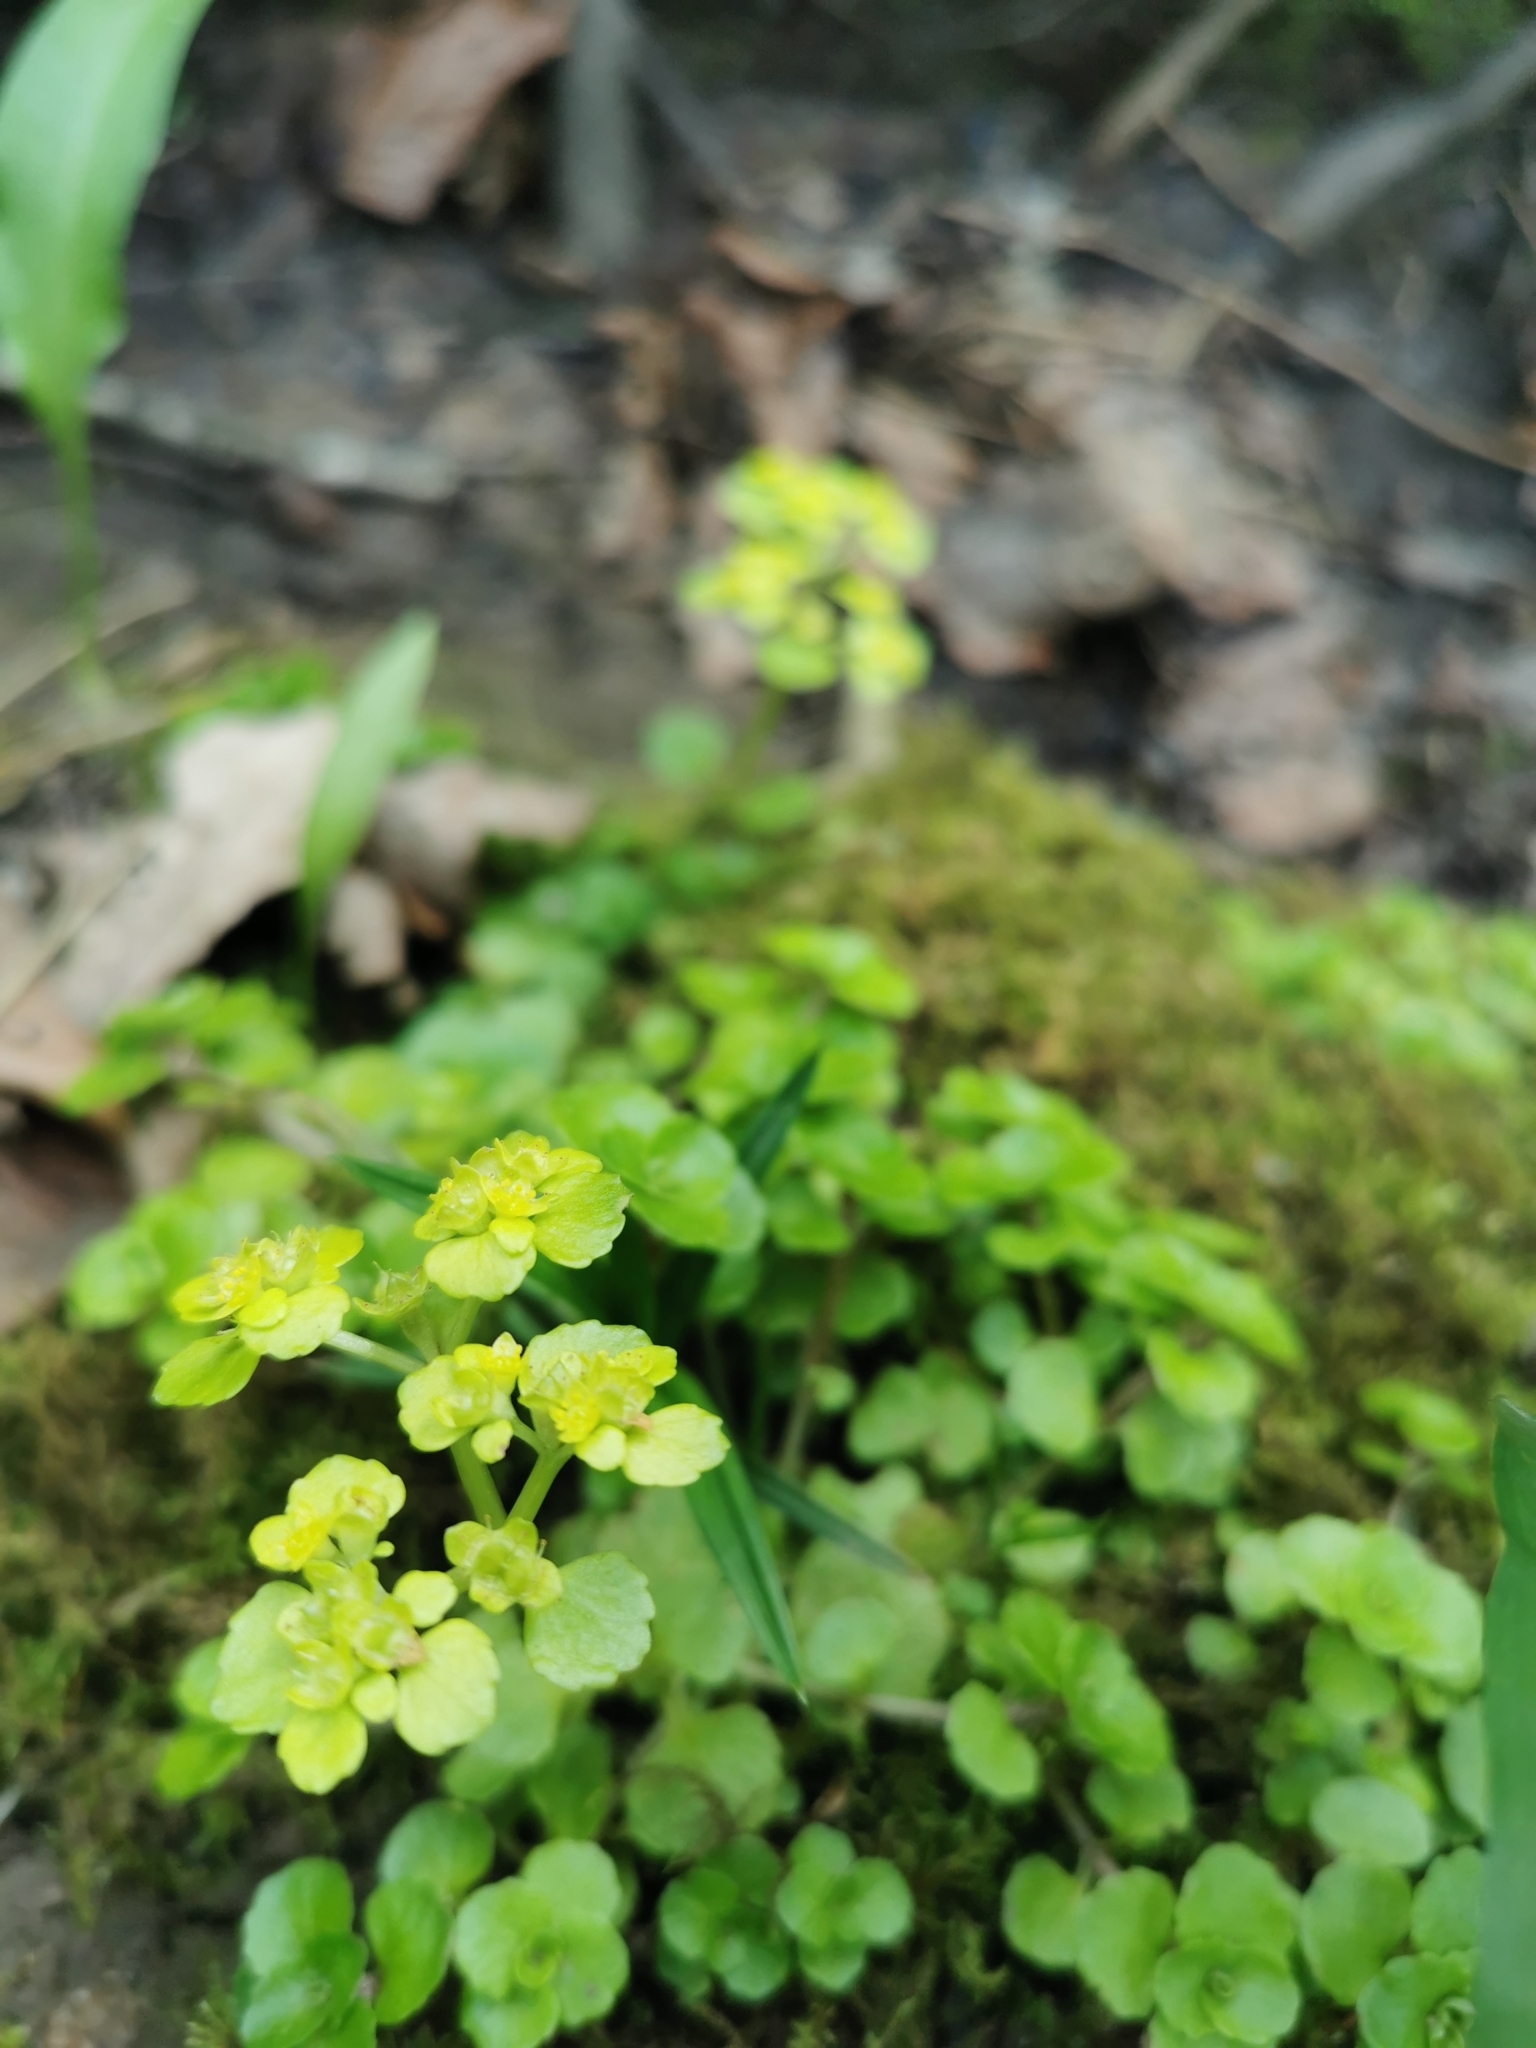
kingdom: Plantae
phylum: Tracheophyta
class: Magnoliopsida
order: Saxifragales
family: Saxifragaceae
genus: Chrysosplenium
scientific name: Chrysosplenium oppositifolium
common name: Opposite-leaved golden-saxifrage
